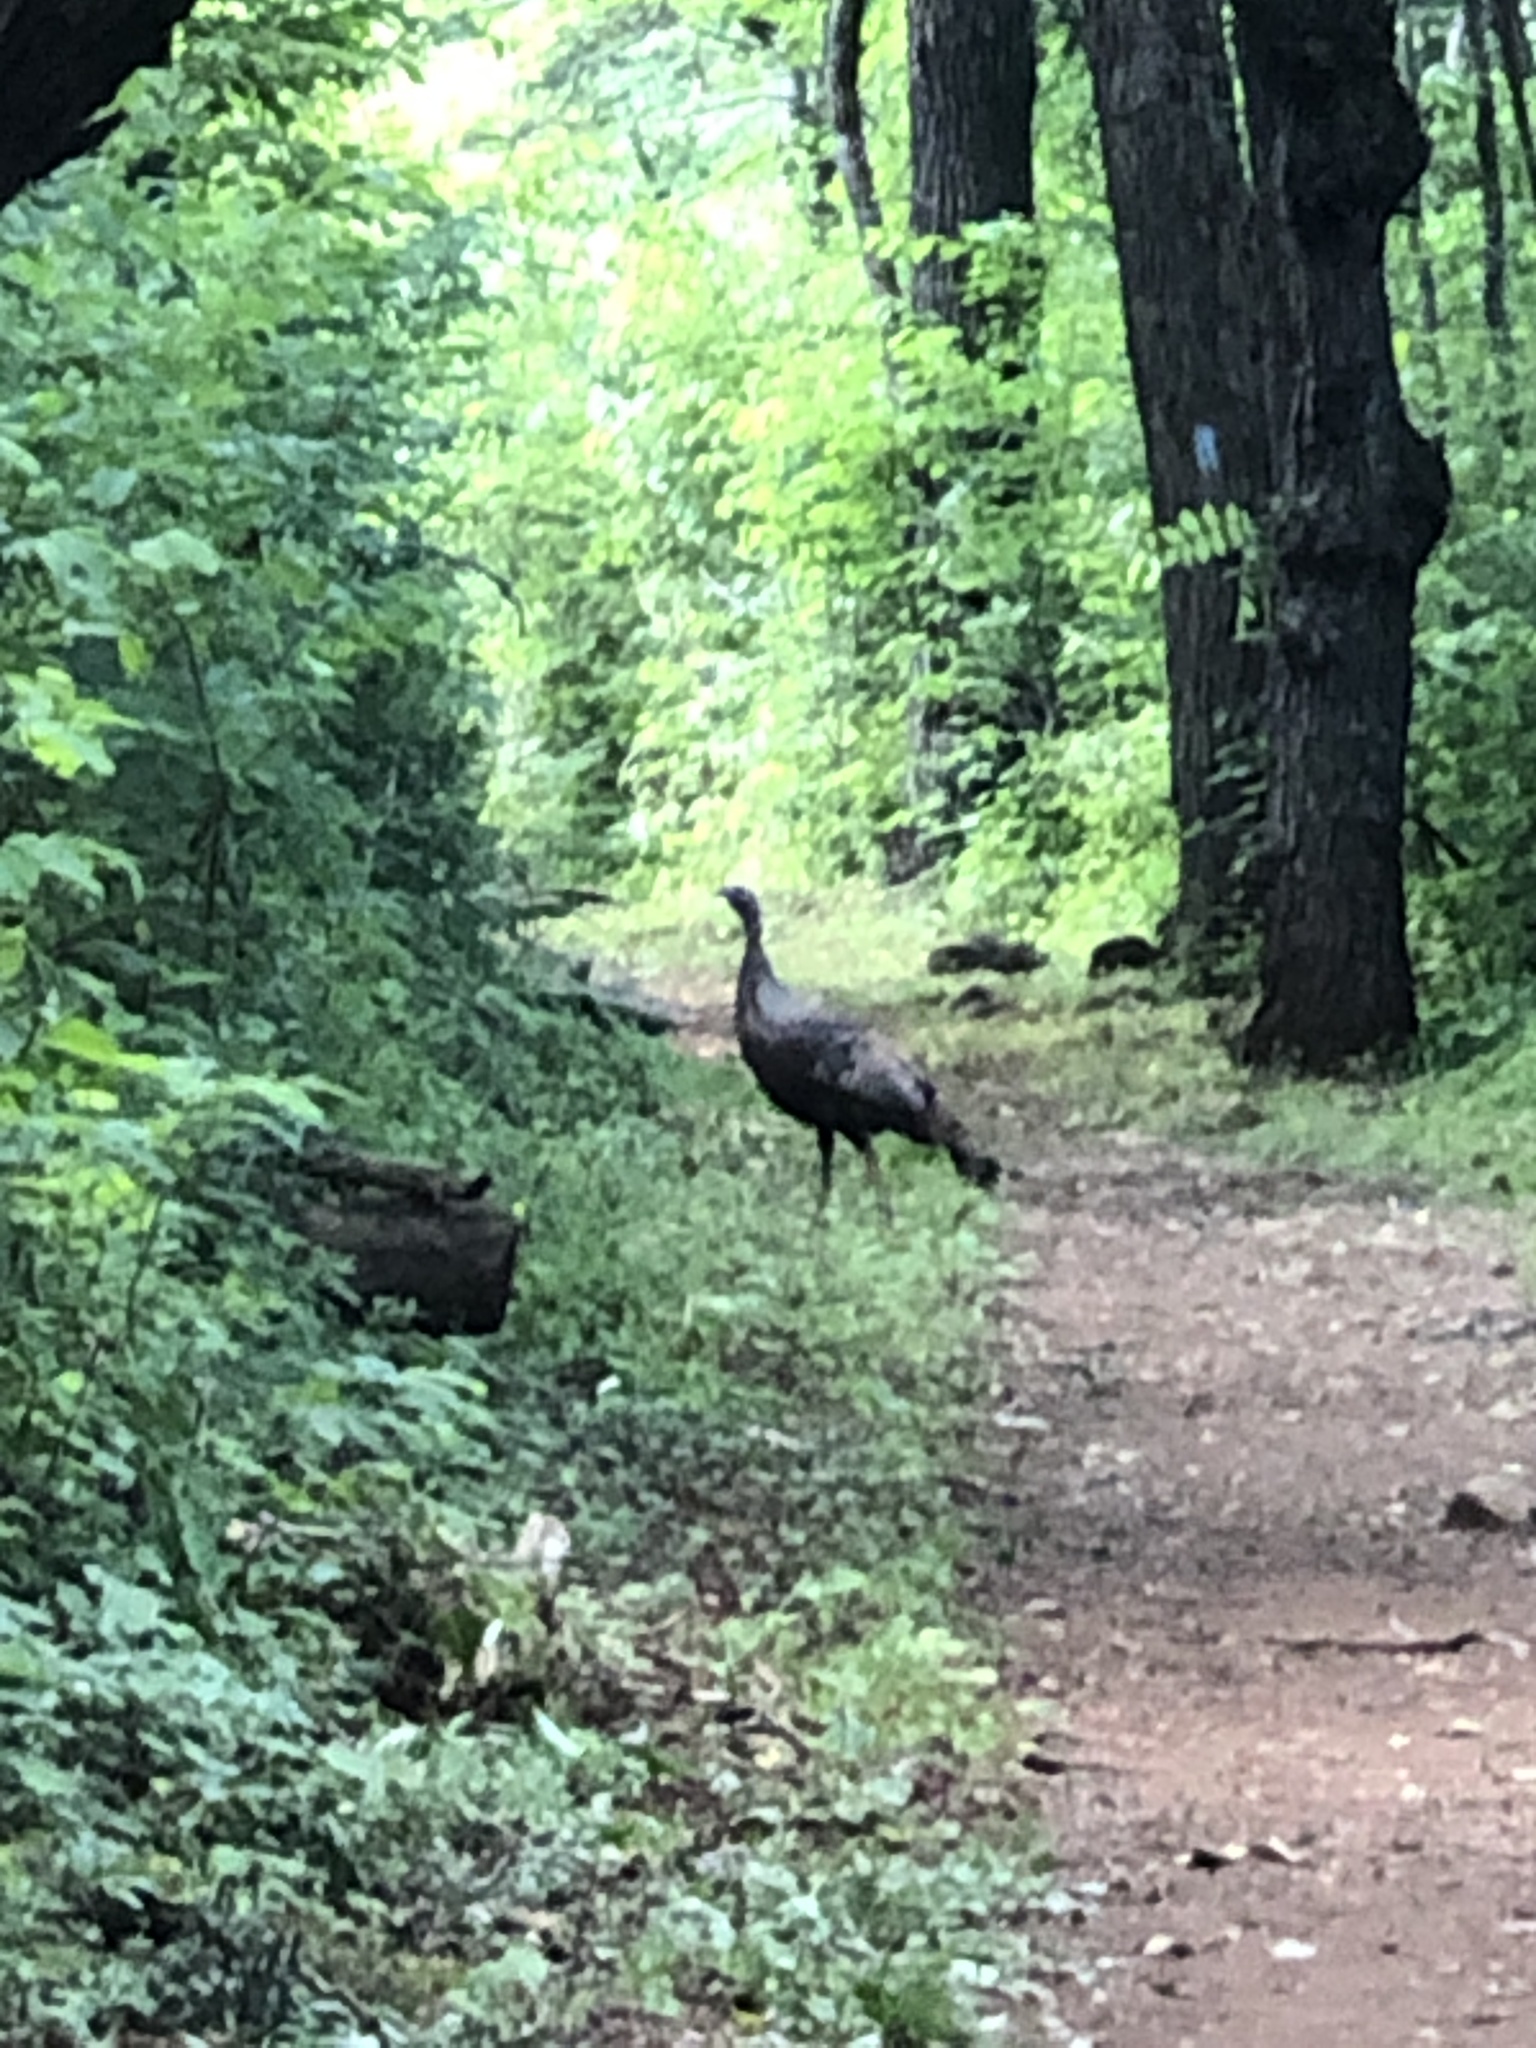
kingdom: Animalia
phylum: Chordata
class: Aves
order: Galliformes
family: Phasianidae
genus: Meleagris
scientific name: Meleagris gallopavo
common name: Wild turkey
